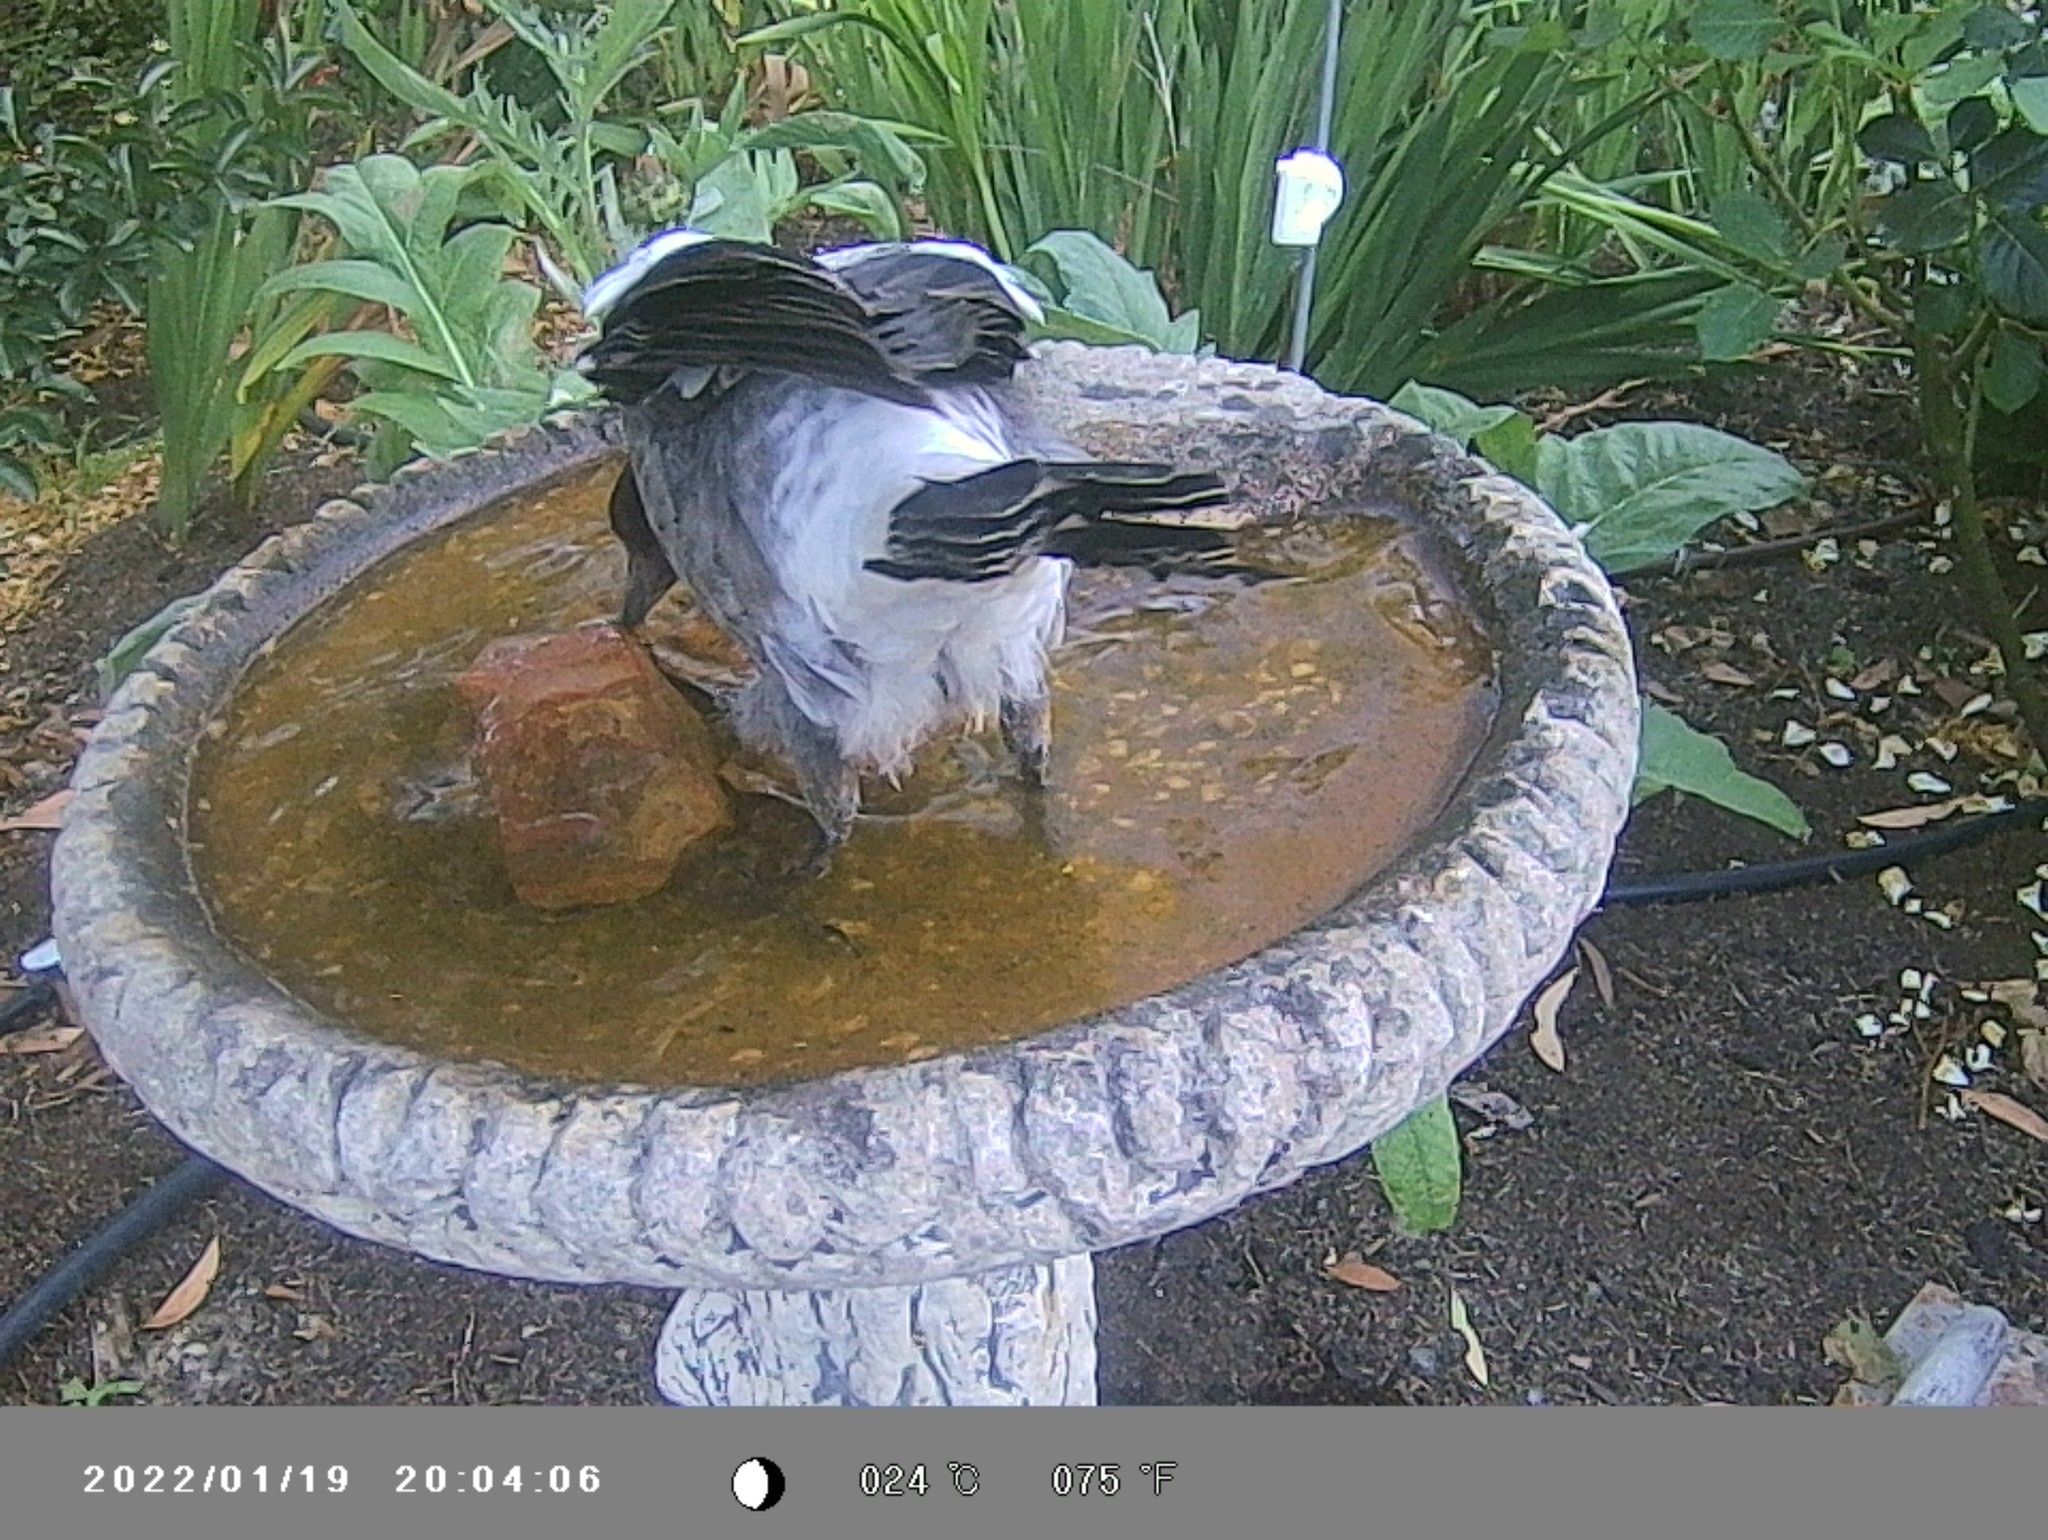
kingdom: Animalia
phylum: Chordata
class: Aves
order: Passeriformes
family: Cracticidae
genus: Gymnorhina
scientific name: Gymnorhina tibicen
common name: Australian magpie
